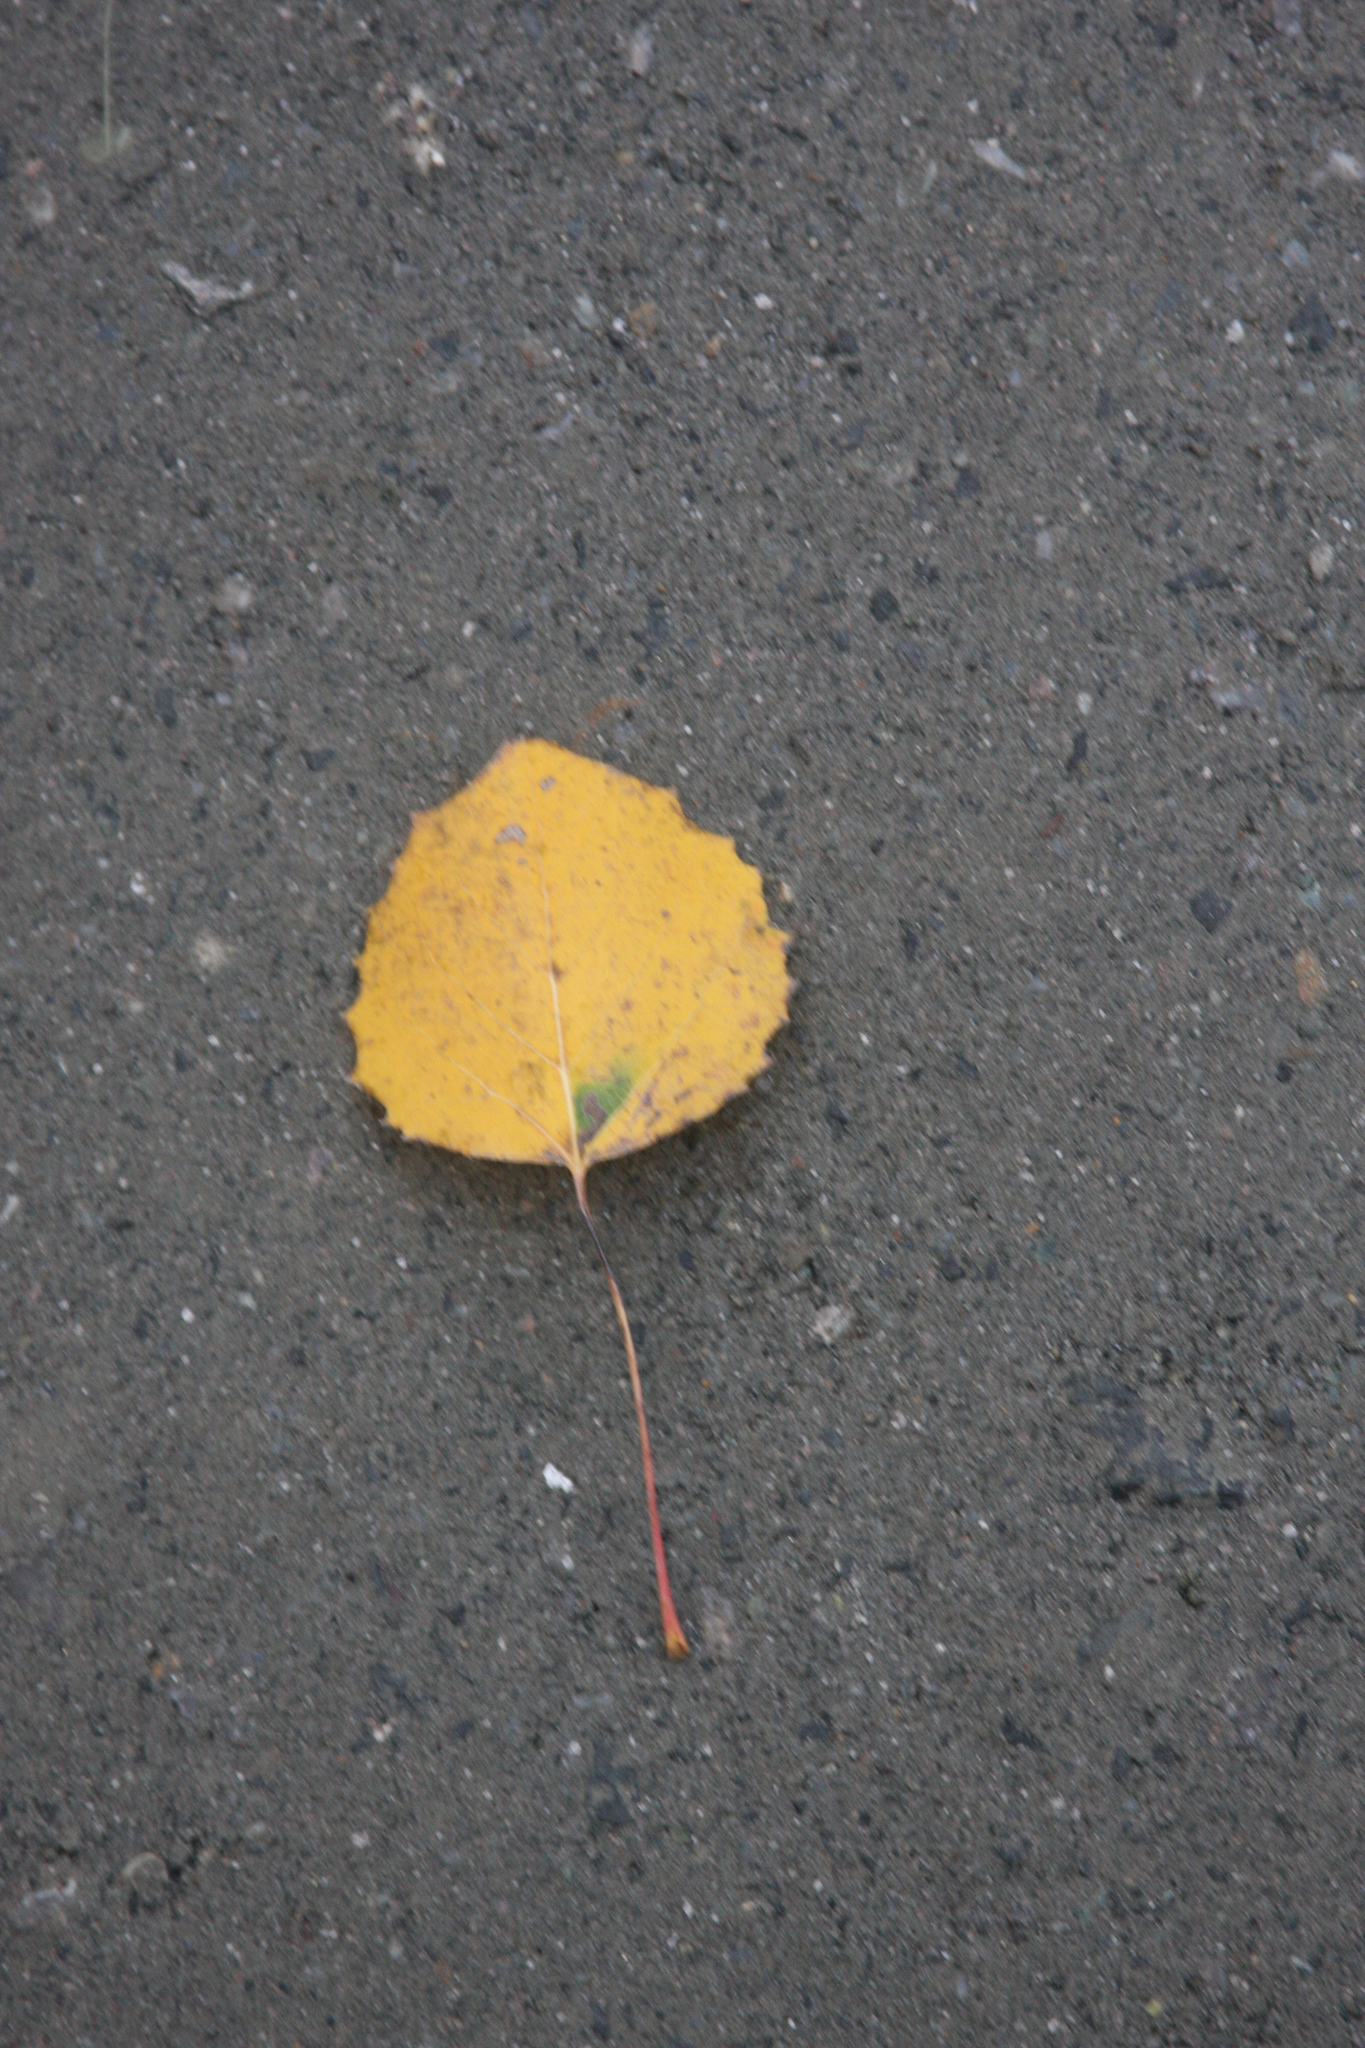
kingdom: Plantae
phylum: Tracheophyta
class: Magnoliopsida
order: Malpighiales
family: Salicaceae
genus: Populus
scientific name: Populus grandidentata
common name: Bigtooth aspen
